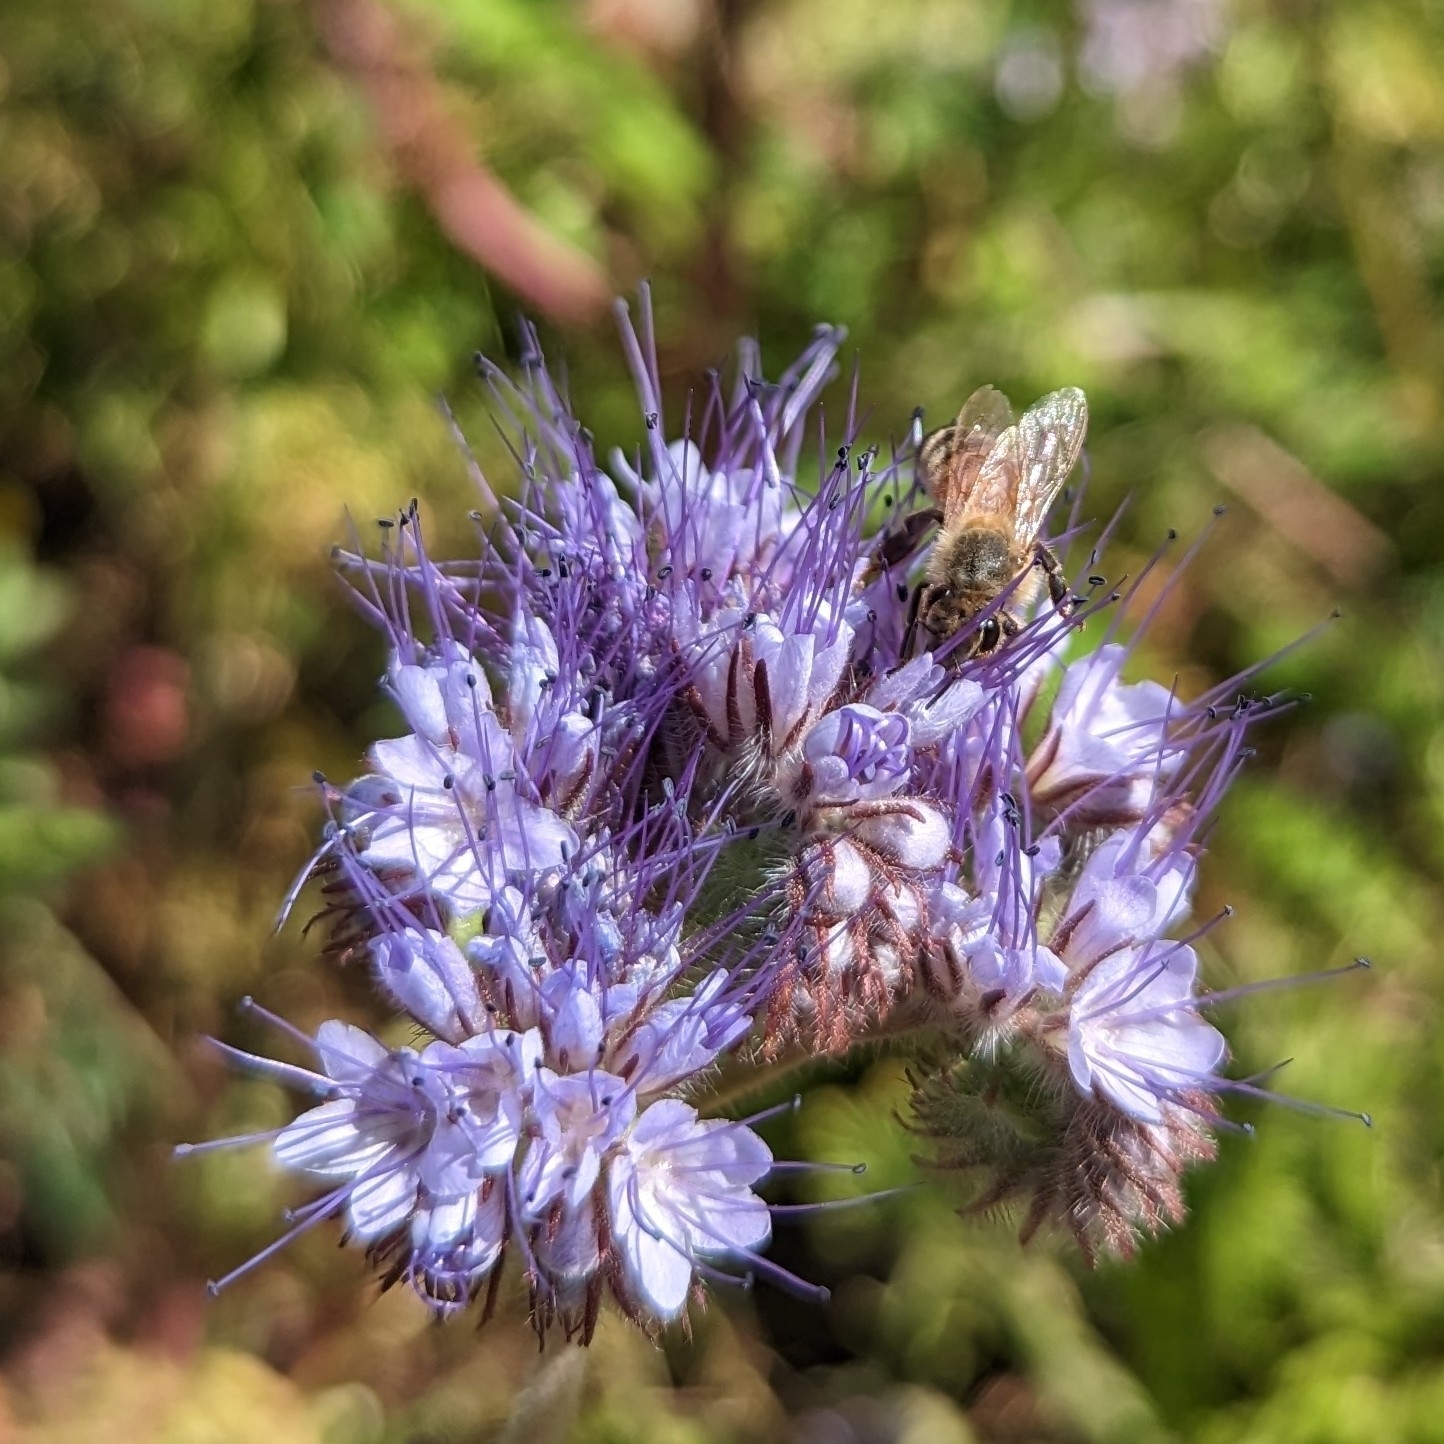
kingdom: Animalia
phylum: Arthropoda
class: Insecta
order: Hymenoptera
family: Apidae
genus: Apis
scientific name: Apis mellifera
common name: Honey bee
